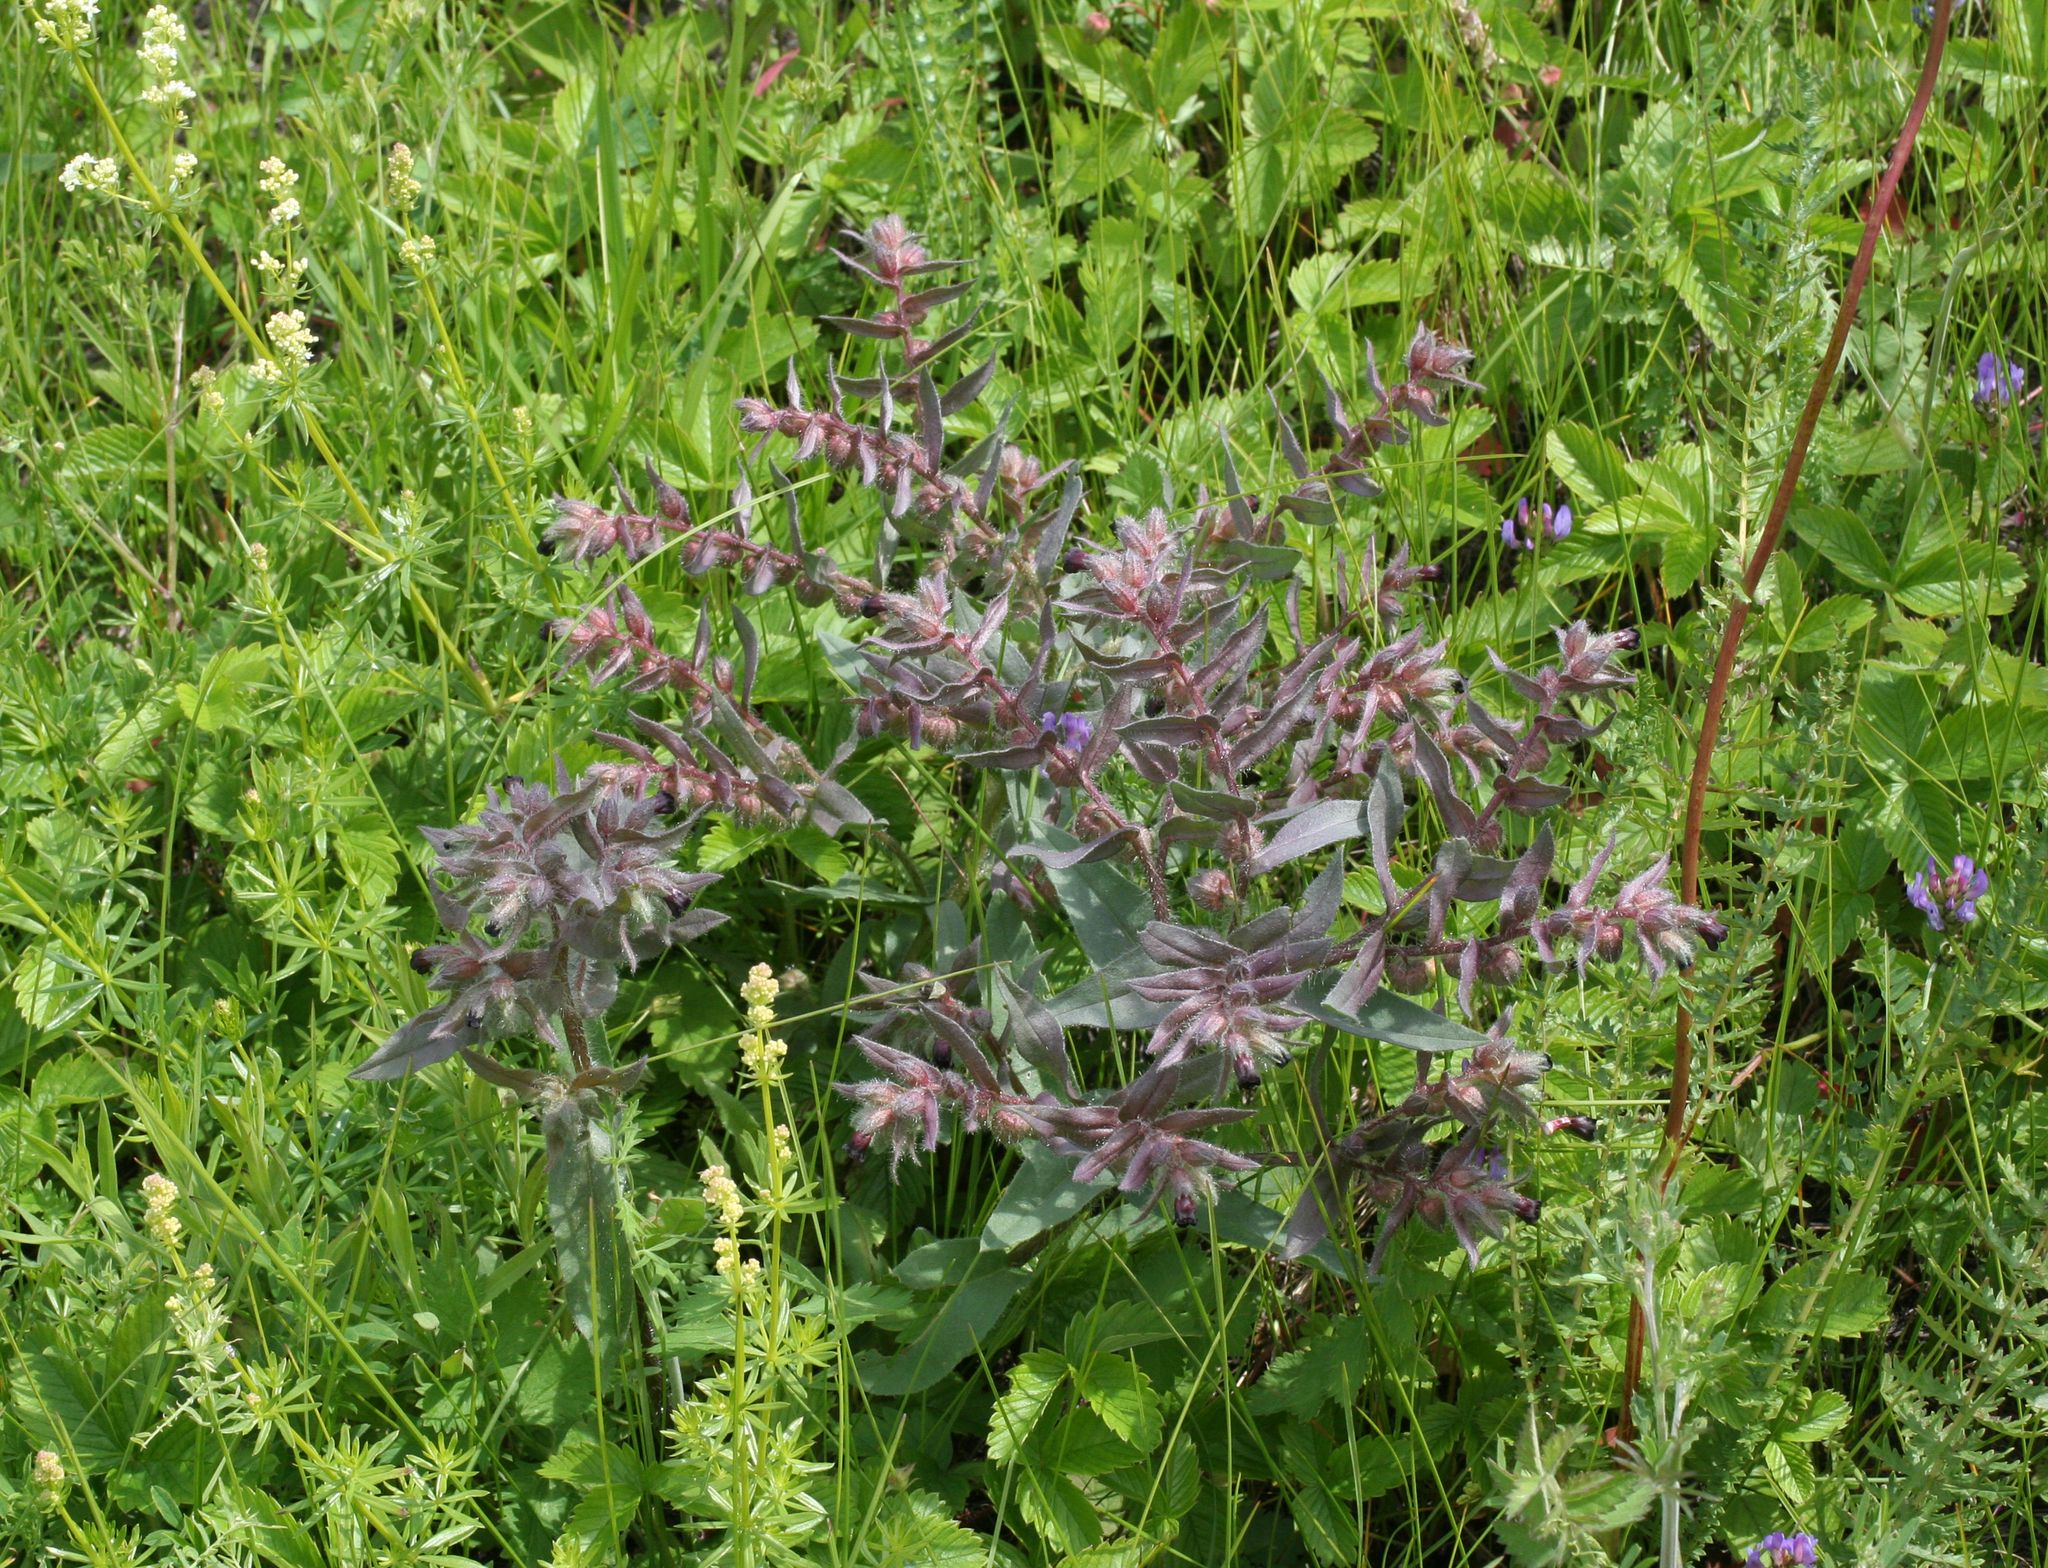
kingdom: Plantae
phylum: Tracheophyta
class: Magnoliopsida
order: Boraginales
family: Boraginaceae
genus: Nonea
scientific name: Nonea pulla
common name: Brown nonea
